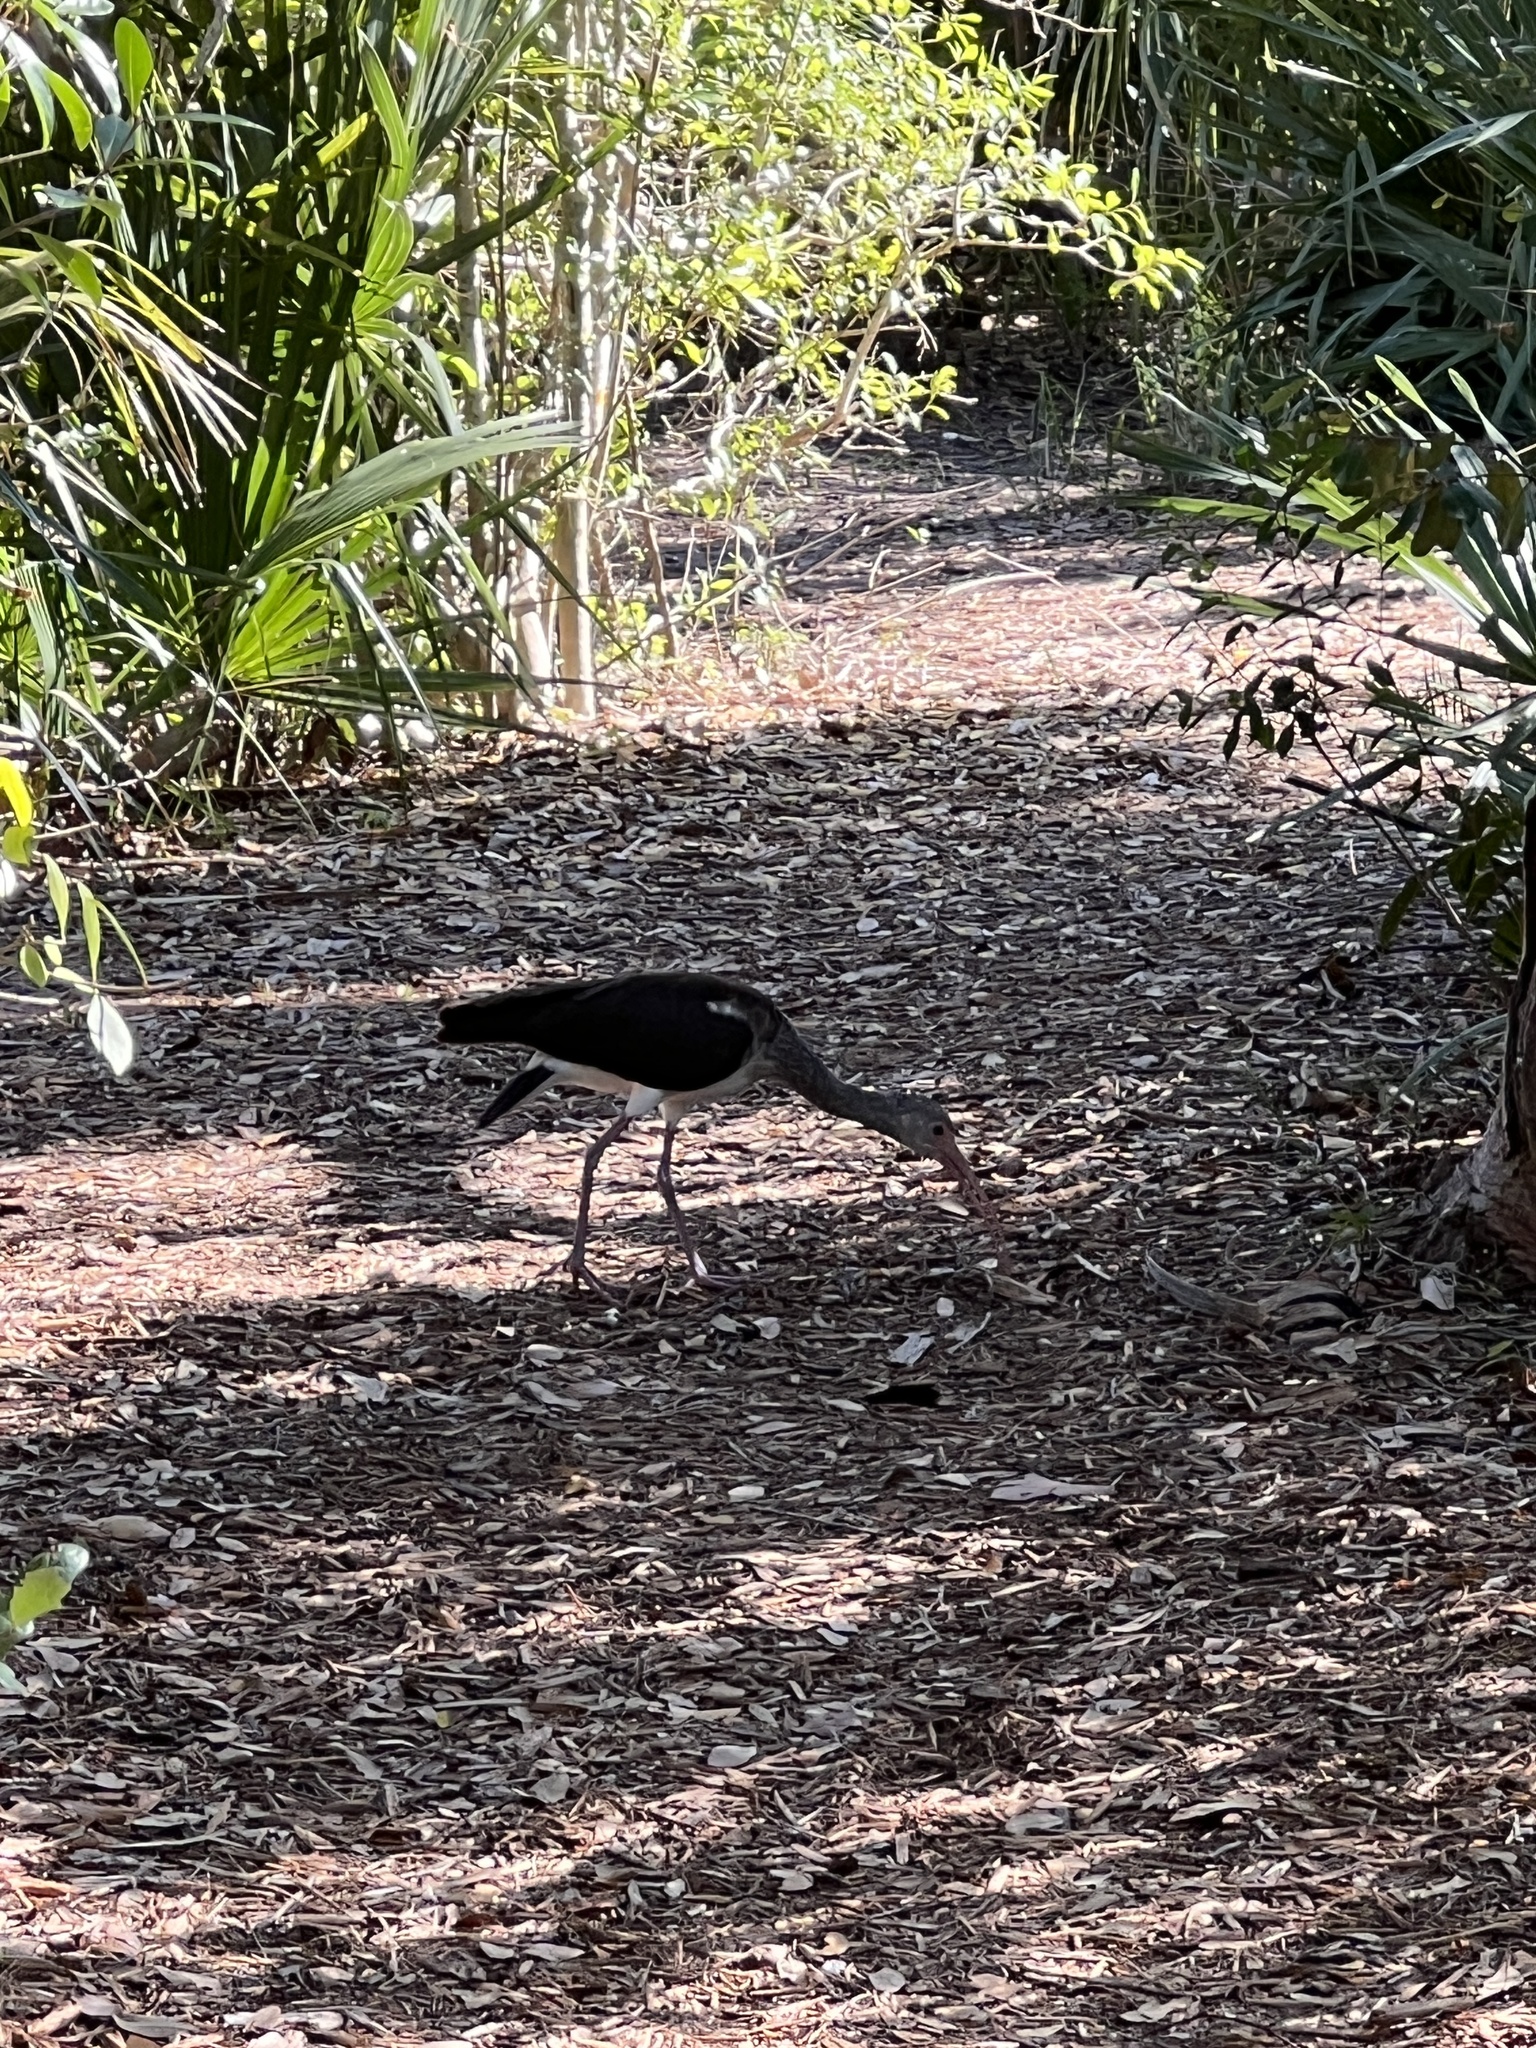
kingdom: Animalia
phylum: Chordata
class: Aves
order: Pelecaniformes
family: Threskiornithidae
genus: Eudocimus
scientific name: Eudocimus albus
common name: White ibis
